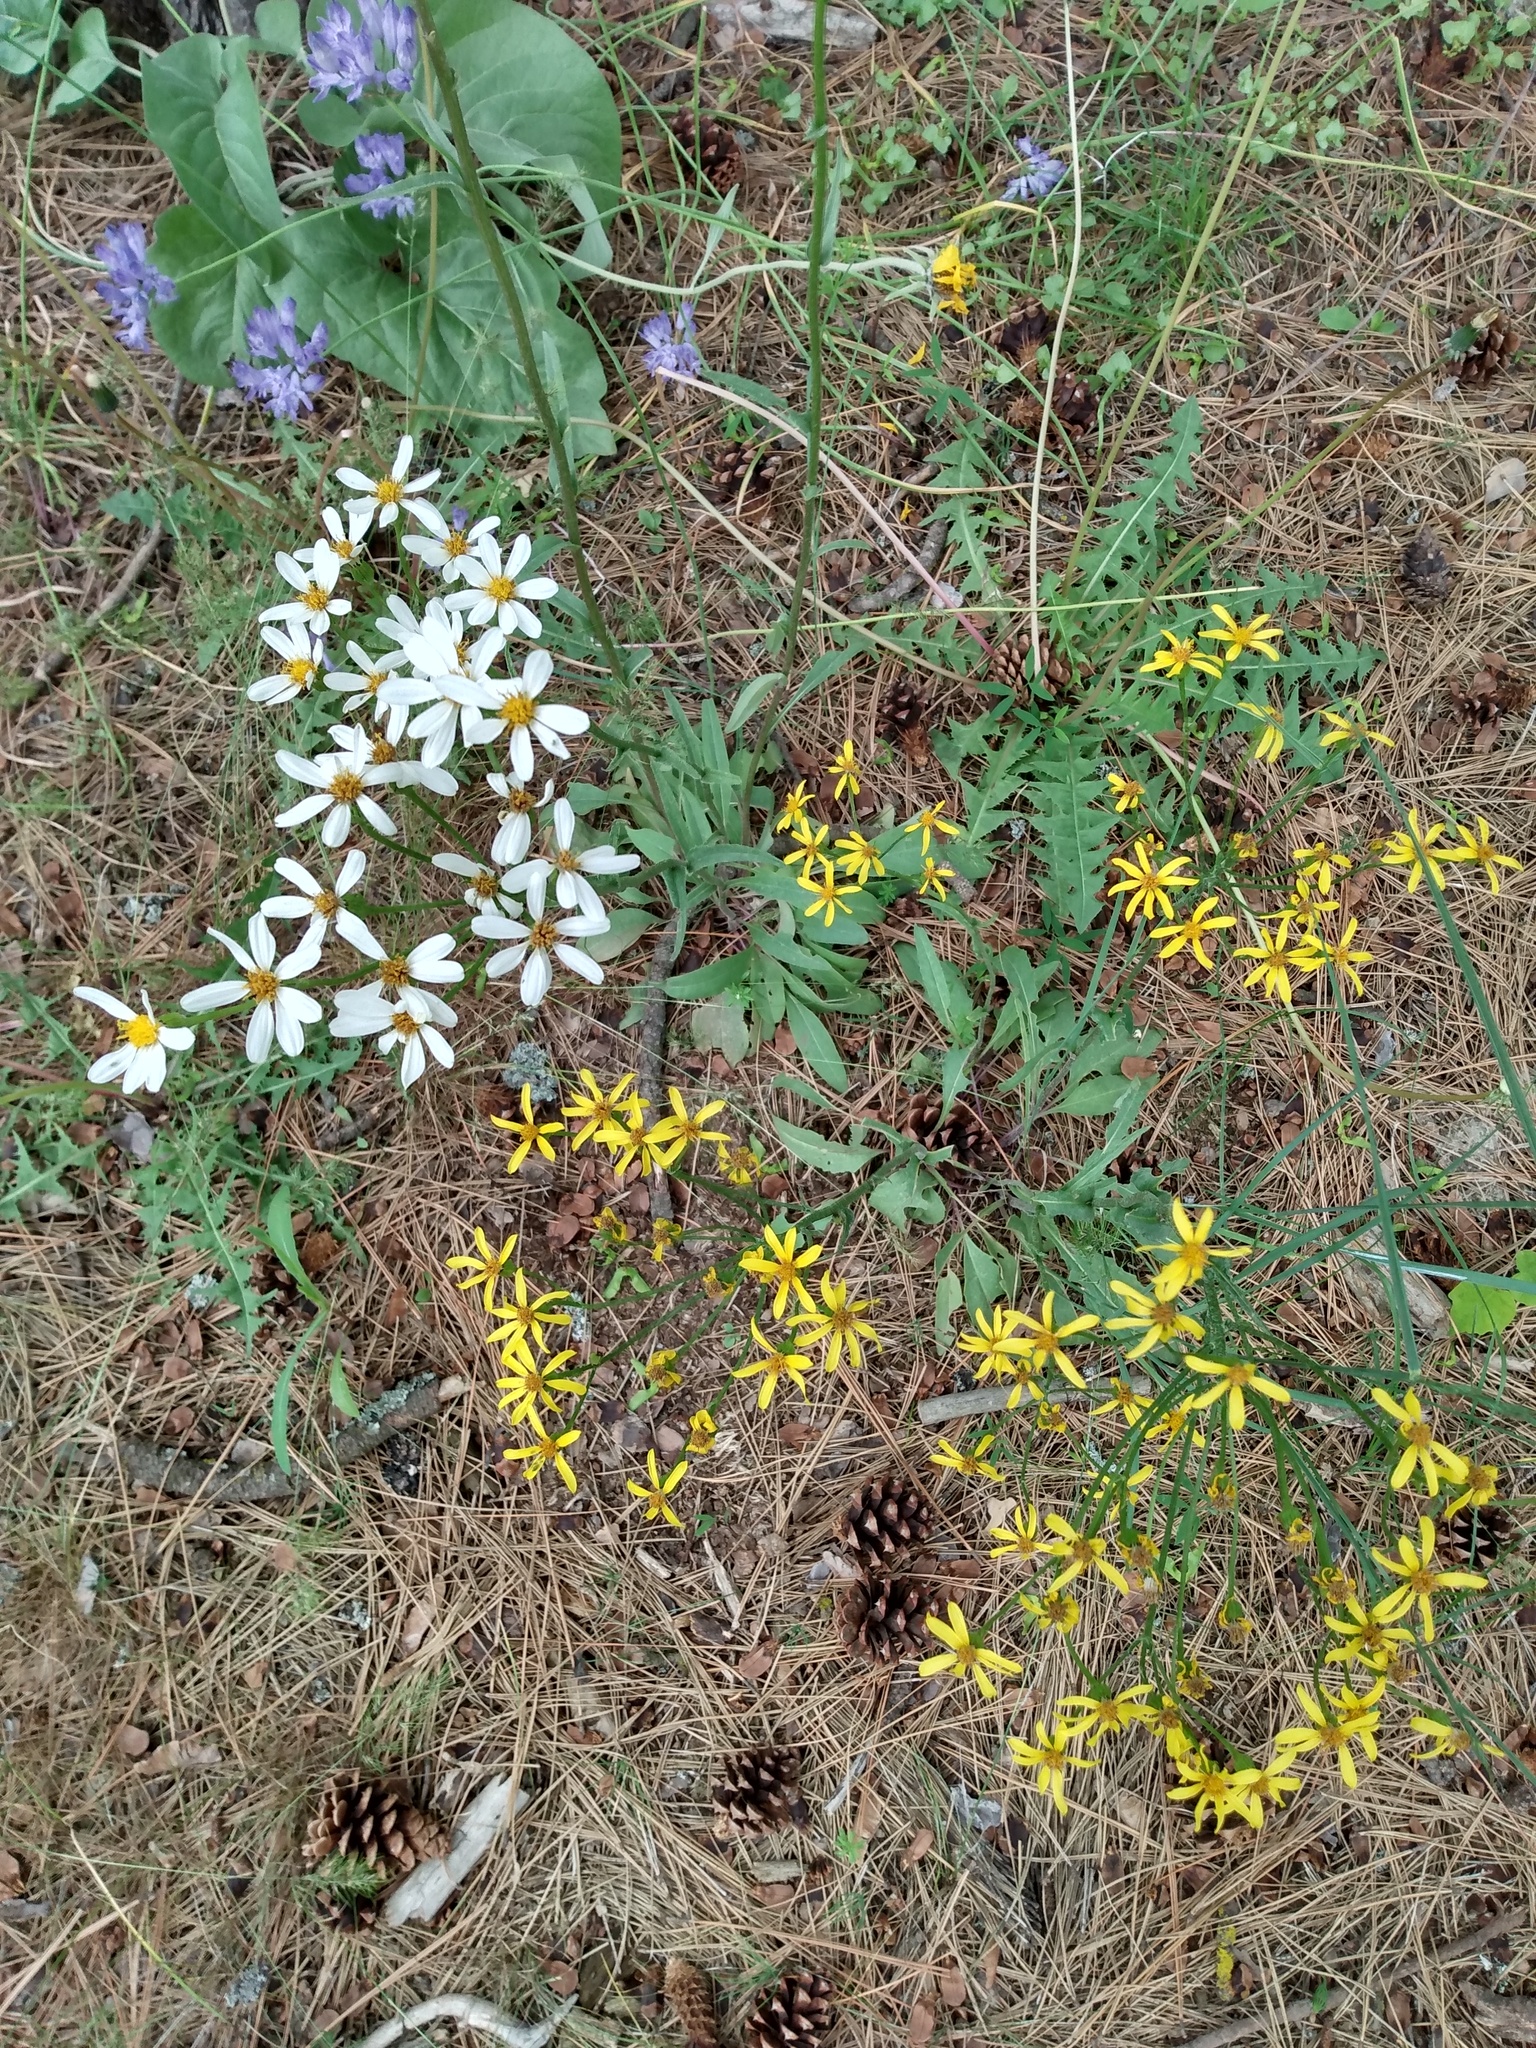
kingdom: Plantae
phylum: Tracheophyta
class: Magnoliopsida
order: Asterales
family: Asteraceae
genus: Senecio
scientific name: Senecio integerrimus
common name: Gaugeplant
